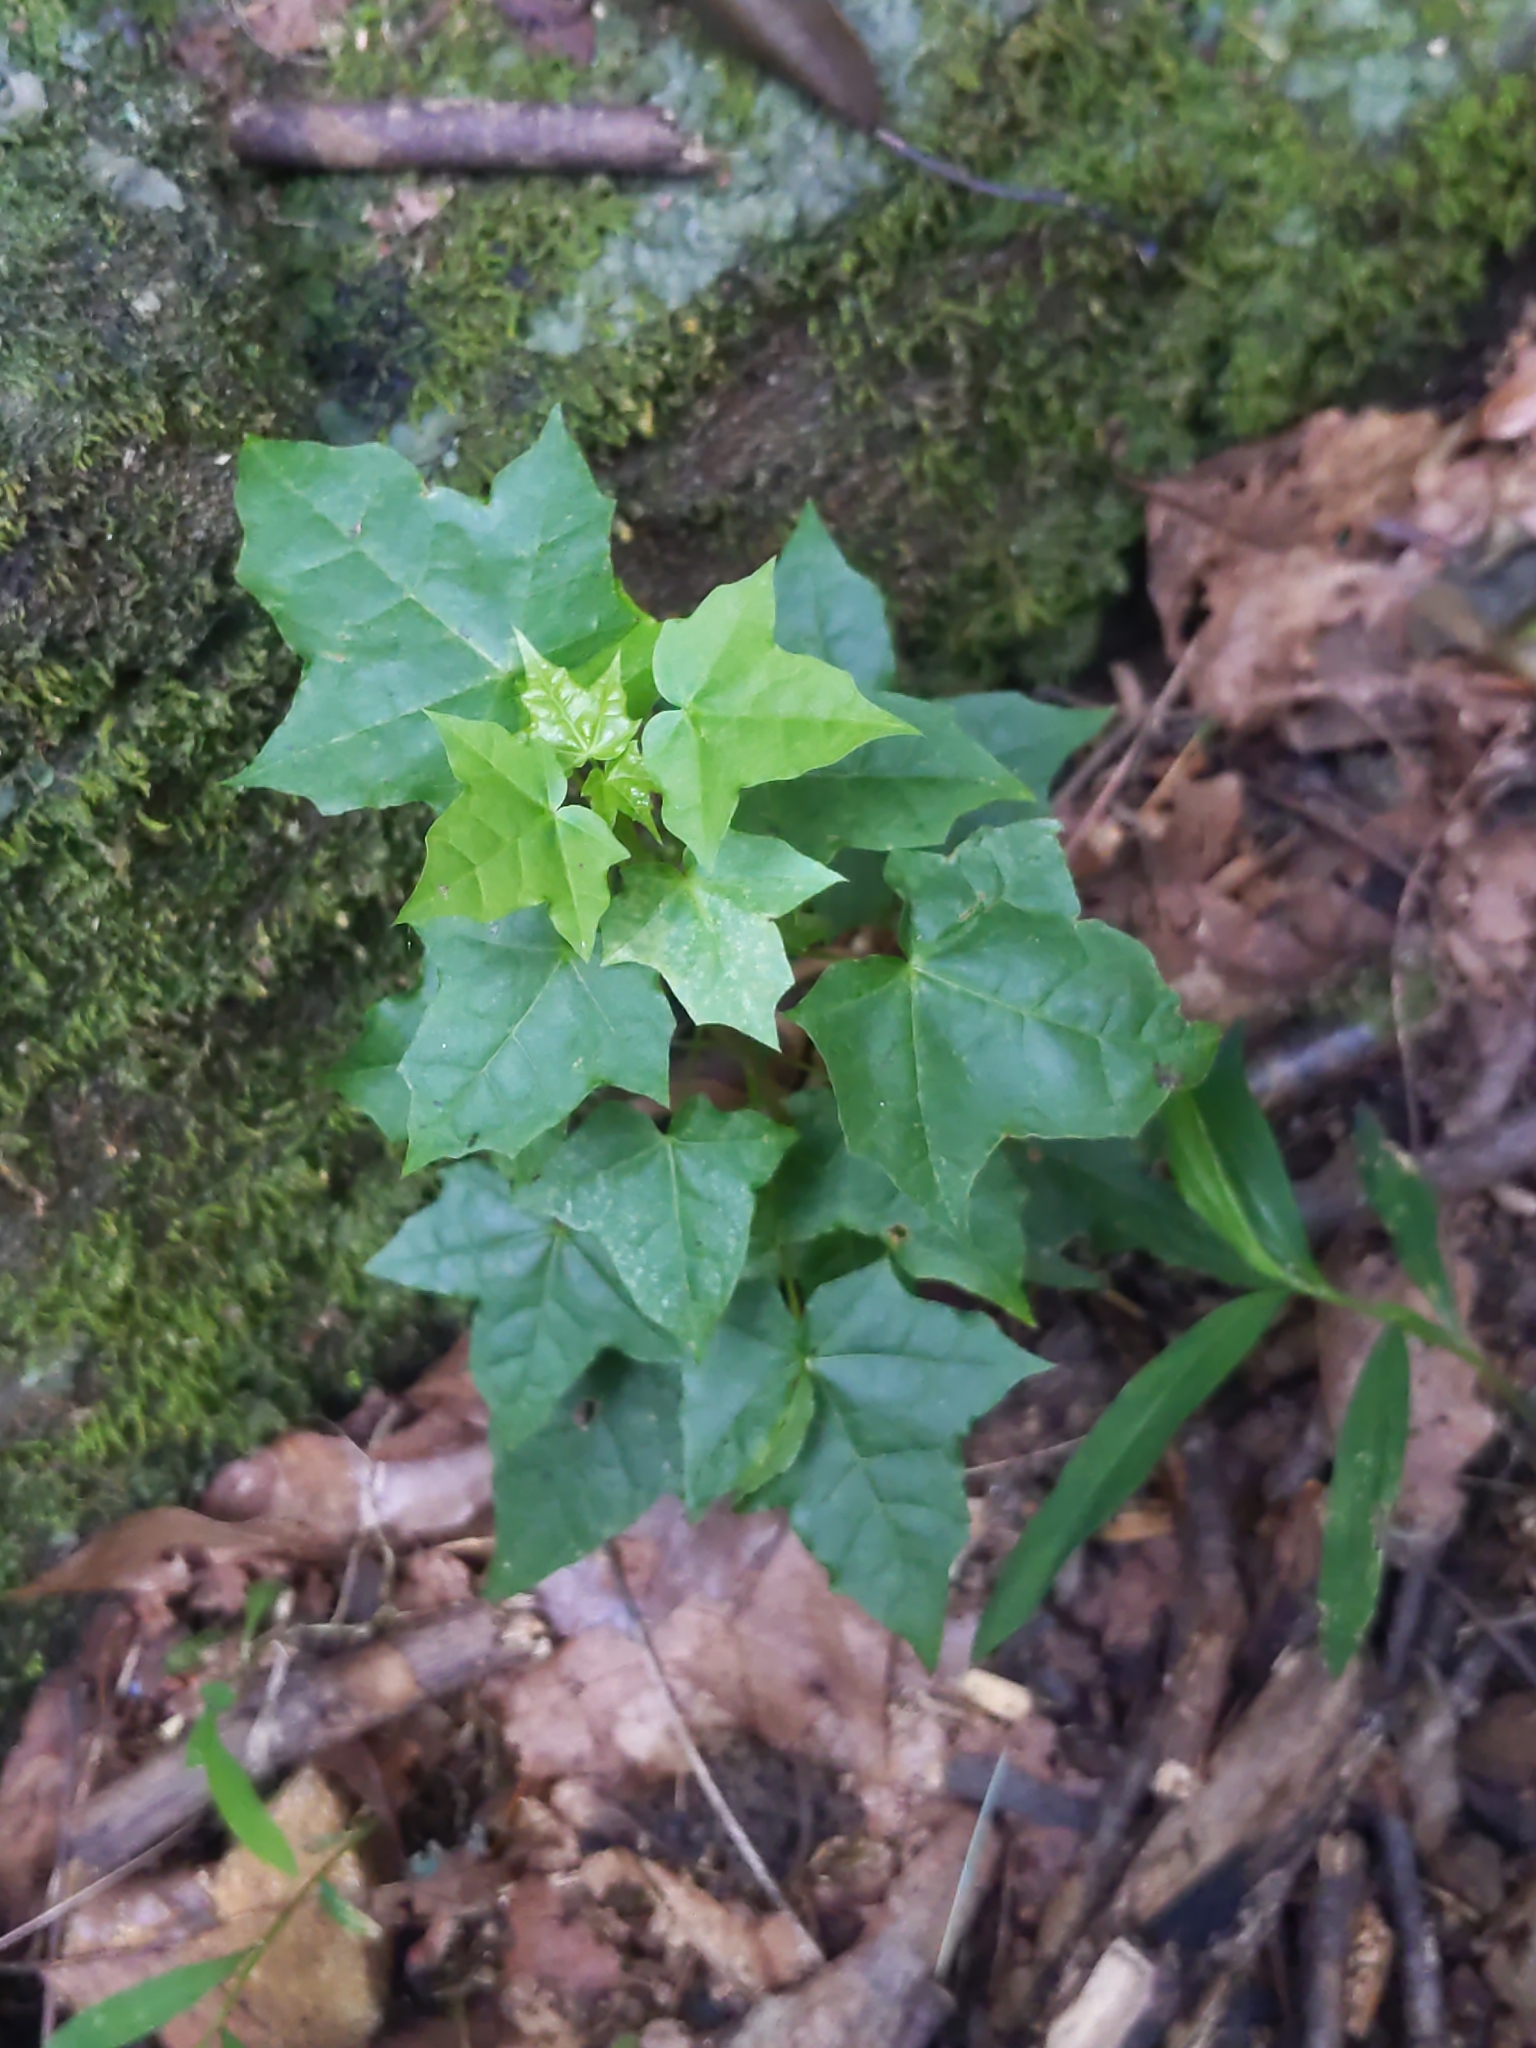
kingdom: Plantae
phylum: Tracheophyta
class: Magnoliopsida
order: Sapindales
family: Sapindaceae
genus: Acer
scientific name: Acer platanoides
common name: Norway maple
